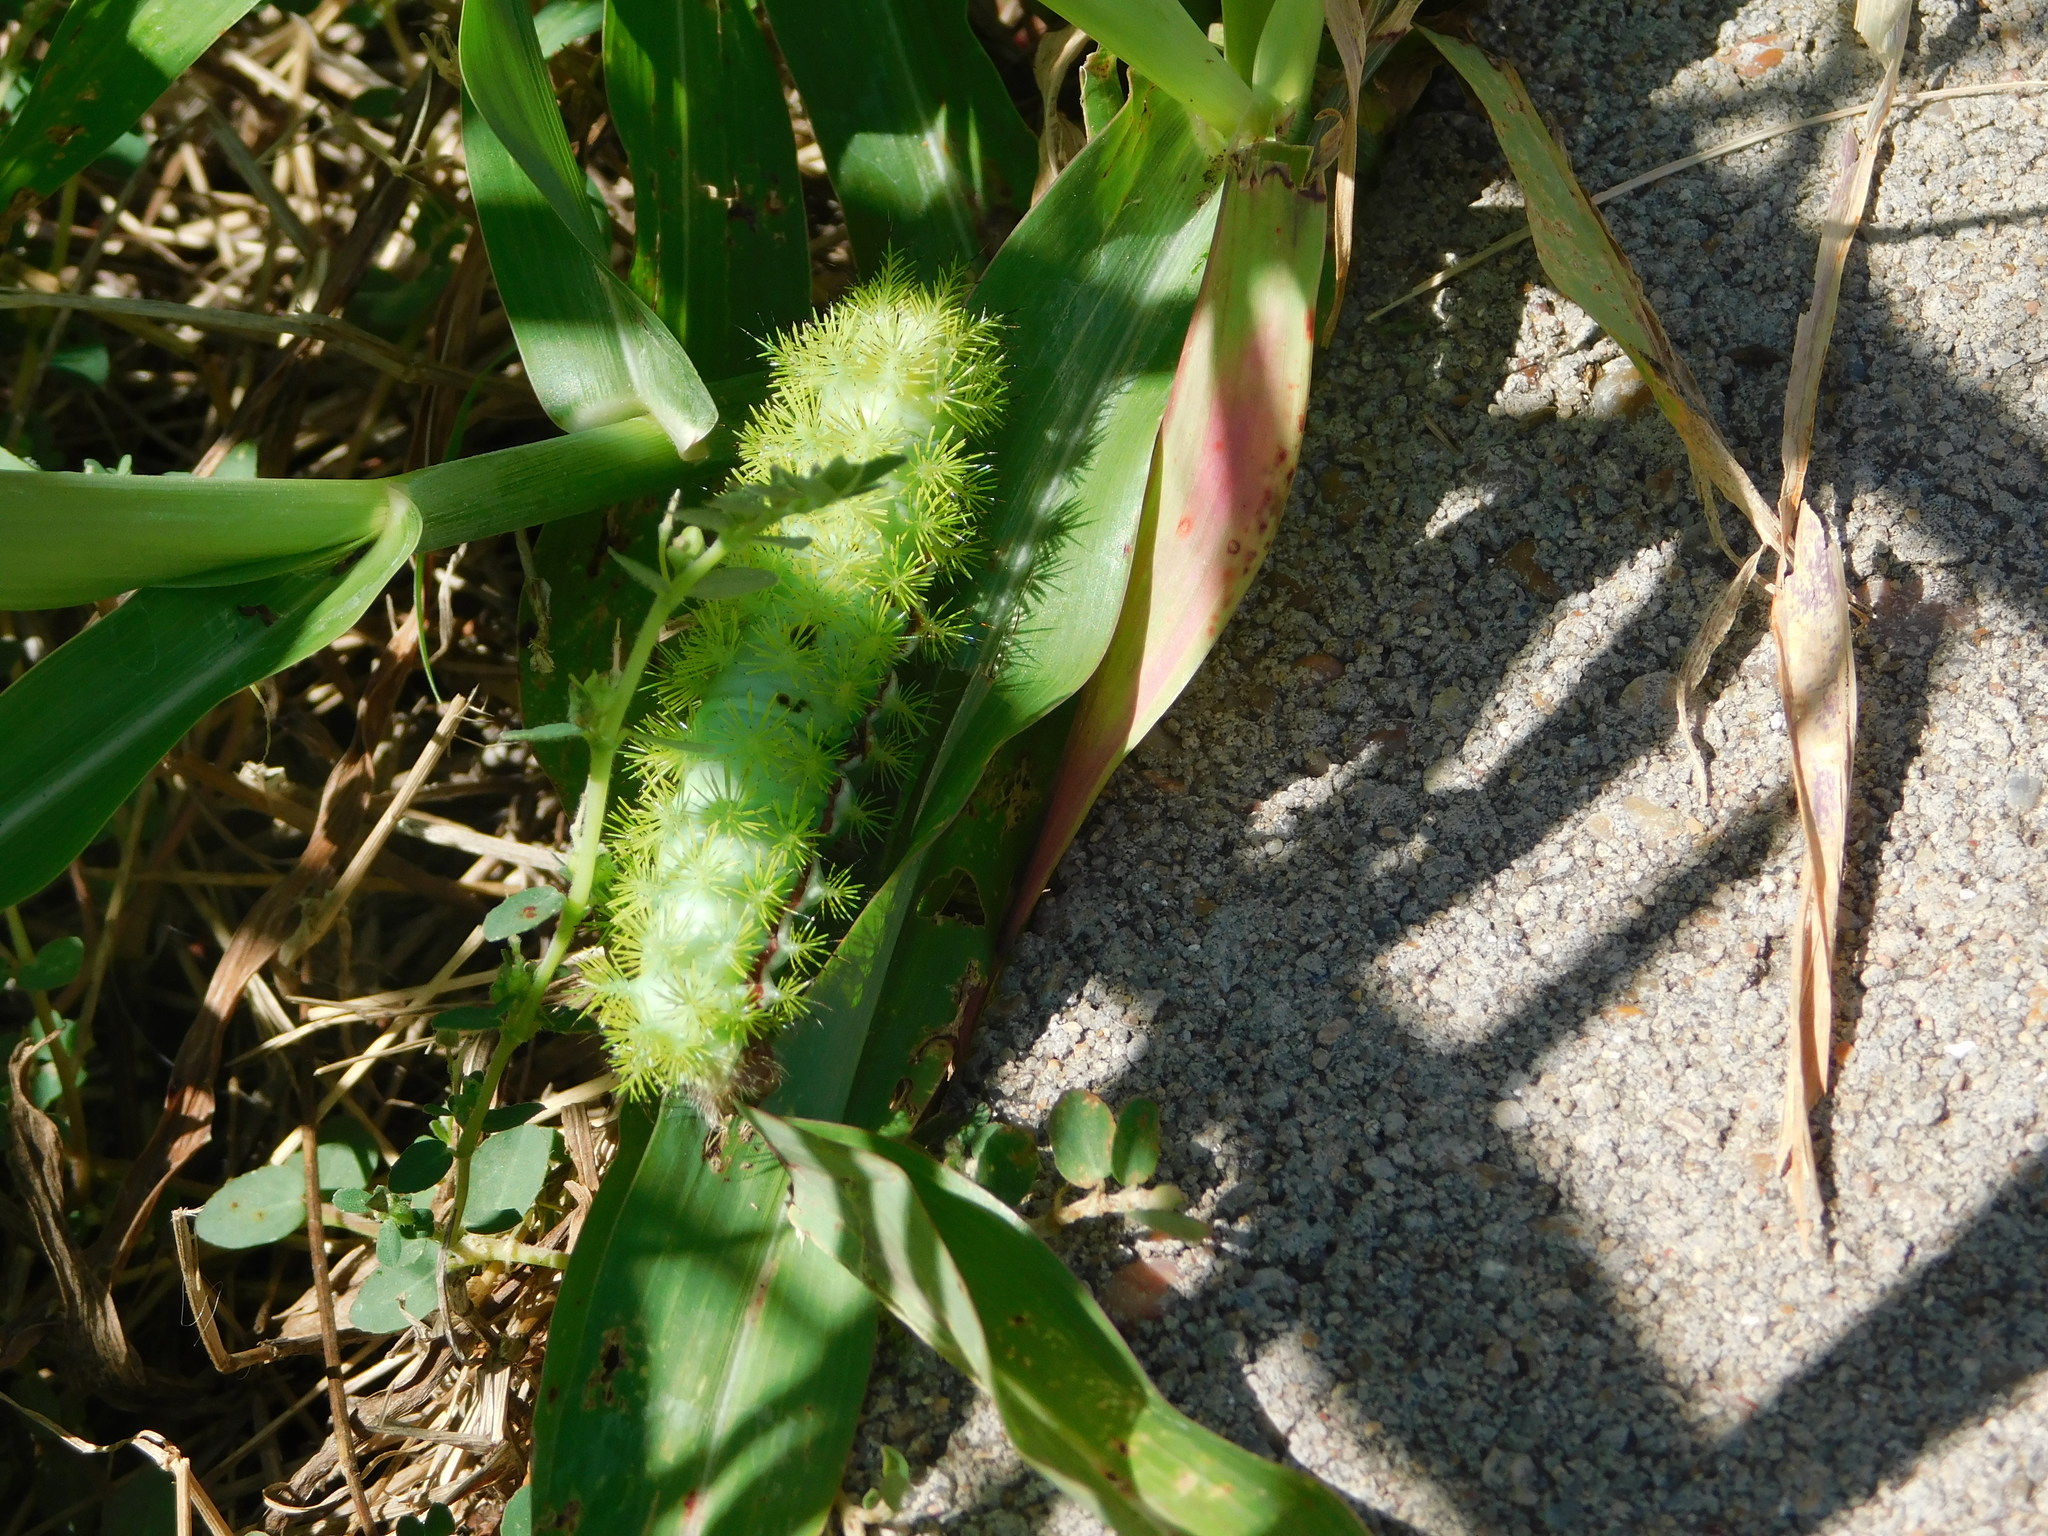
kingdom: Animalia
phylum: Arthropoda
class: Insecta
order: Lepidoptera
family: Saturniidae
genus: Automeris
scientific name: Automeris io
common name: Io moth
